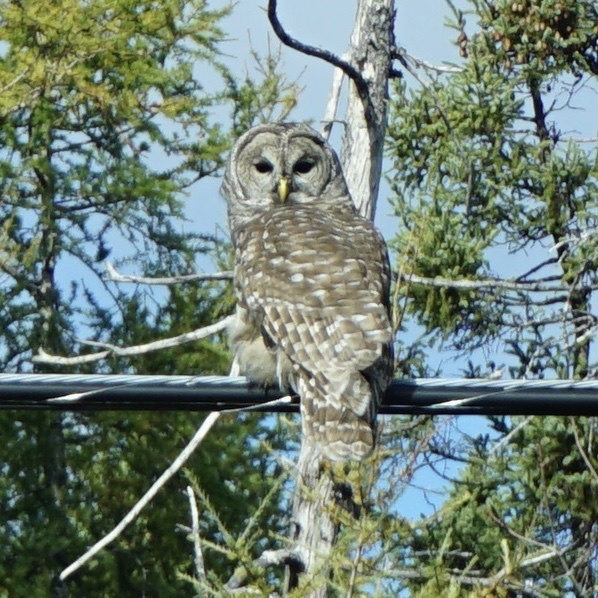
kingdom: Animalia
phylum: Chordata
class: Aves
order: Strigiformes
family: Strigidae
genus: Strix
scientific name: Strix varia
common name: Barred owl
